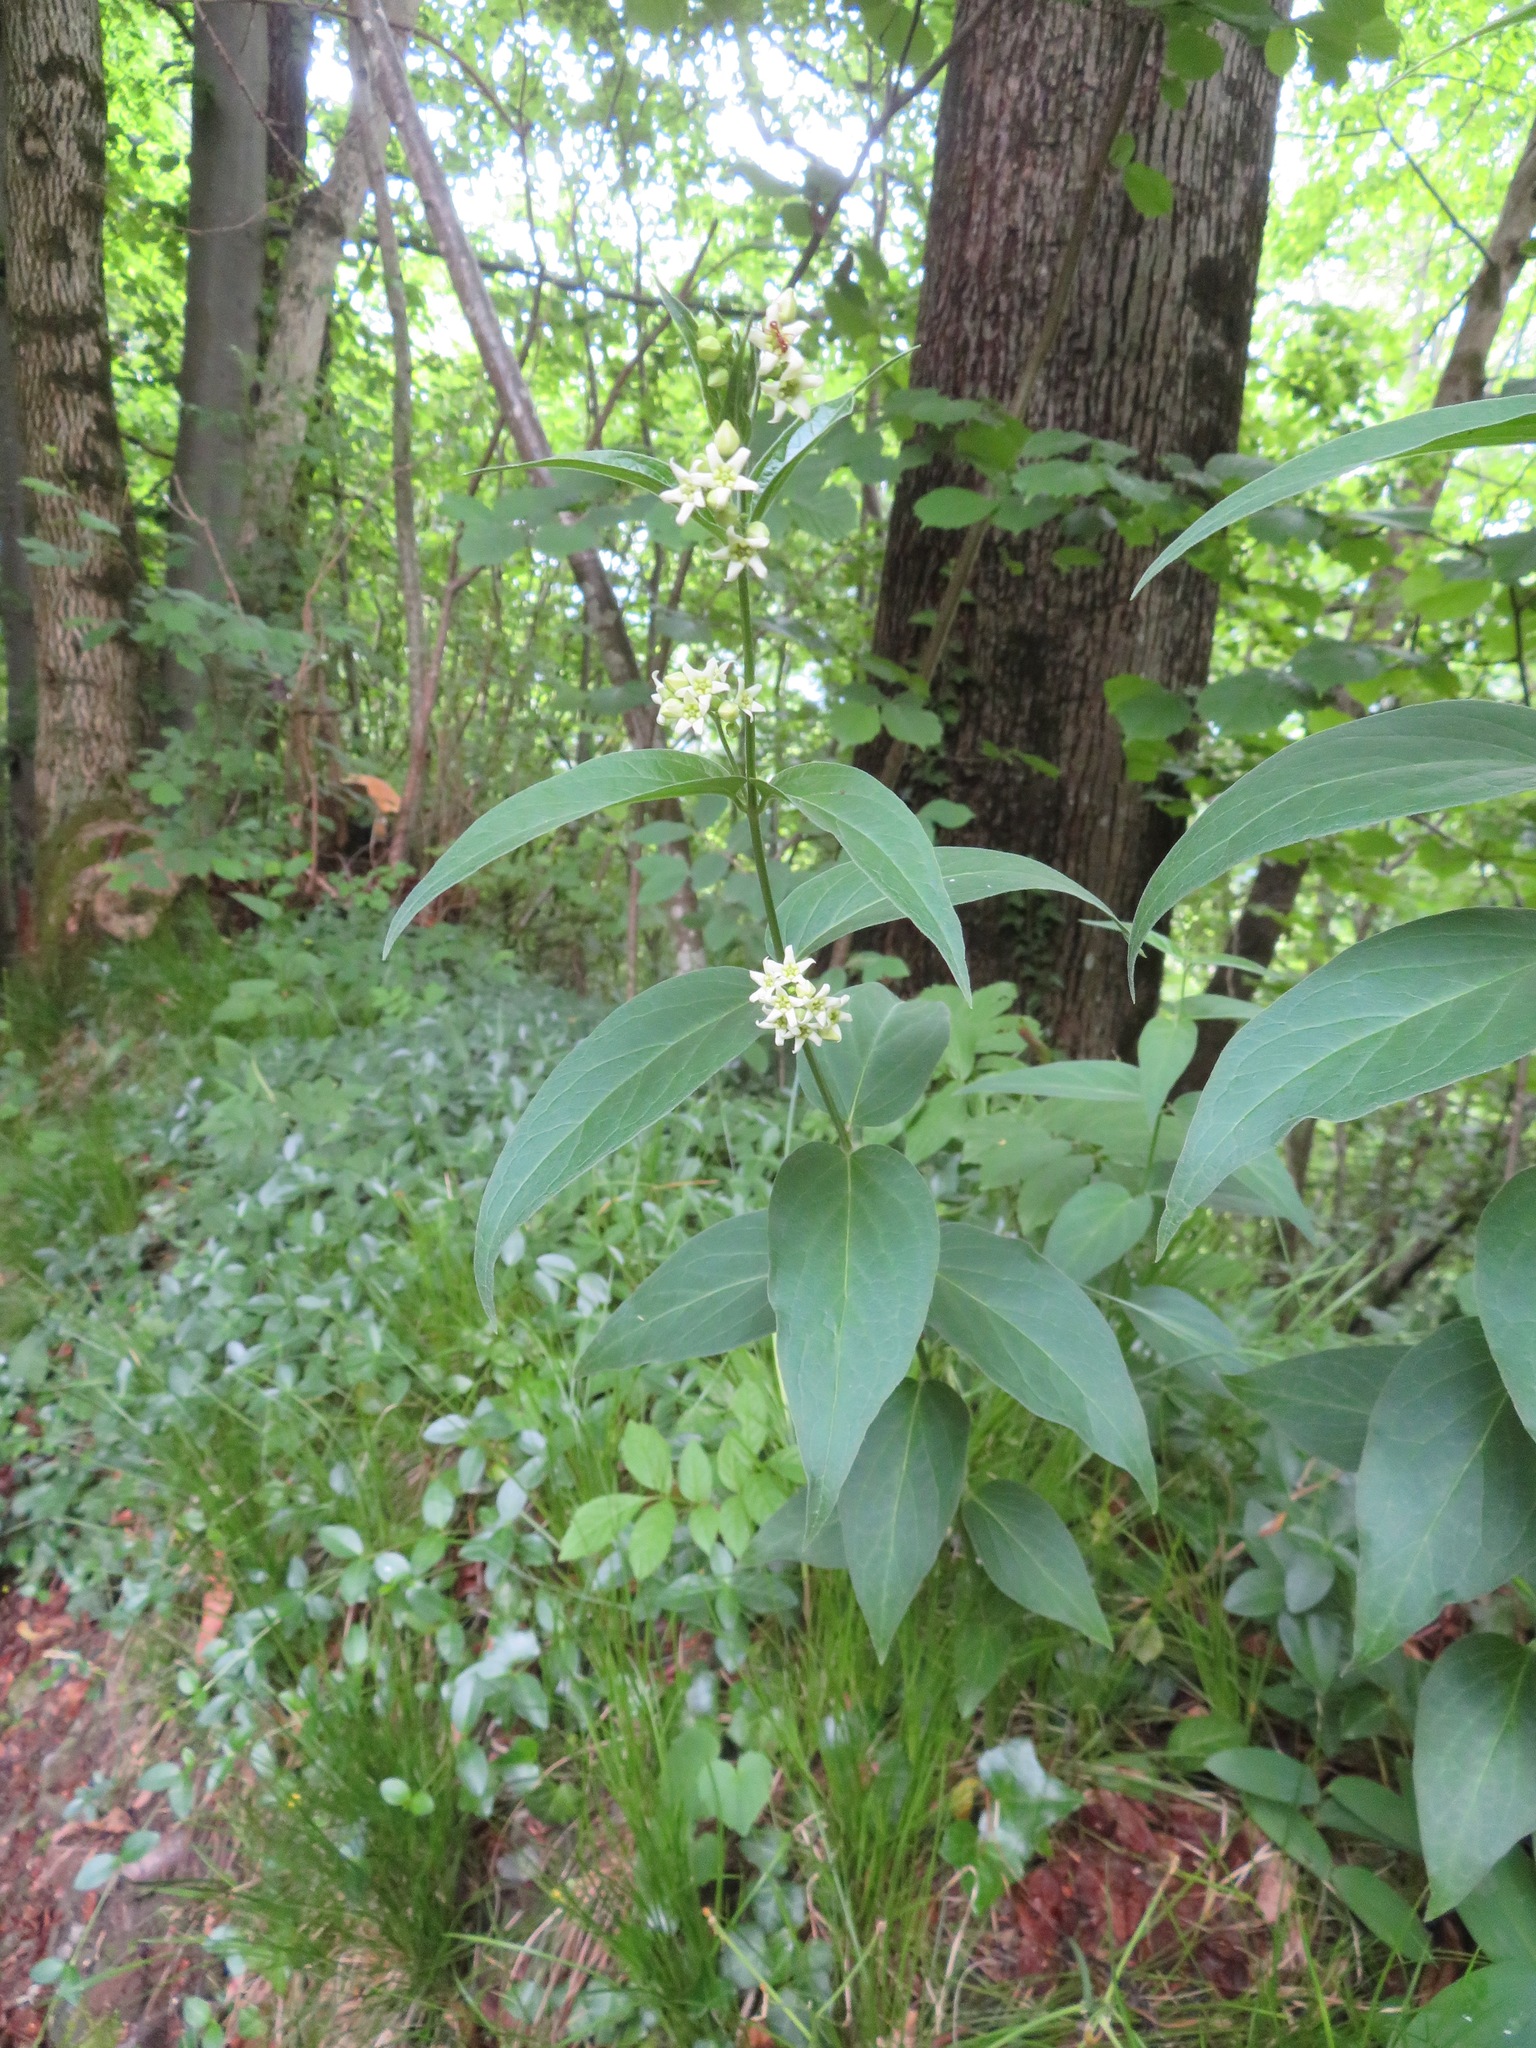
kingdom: Plantae
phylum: Tracheophyta
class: Magnoliopsida
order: Gentianales
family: Apocynaceae
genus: Vincetoxicum
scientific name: Vincetoxicum hirundinaria
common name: White swallowwort
